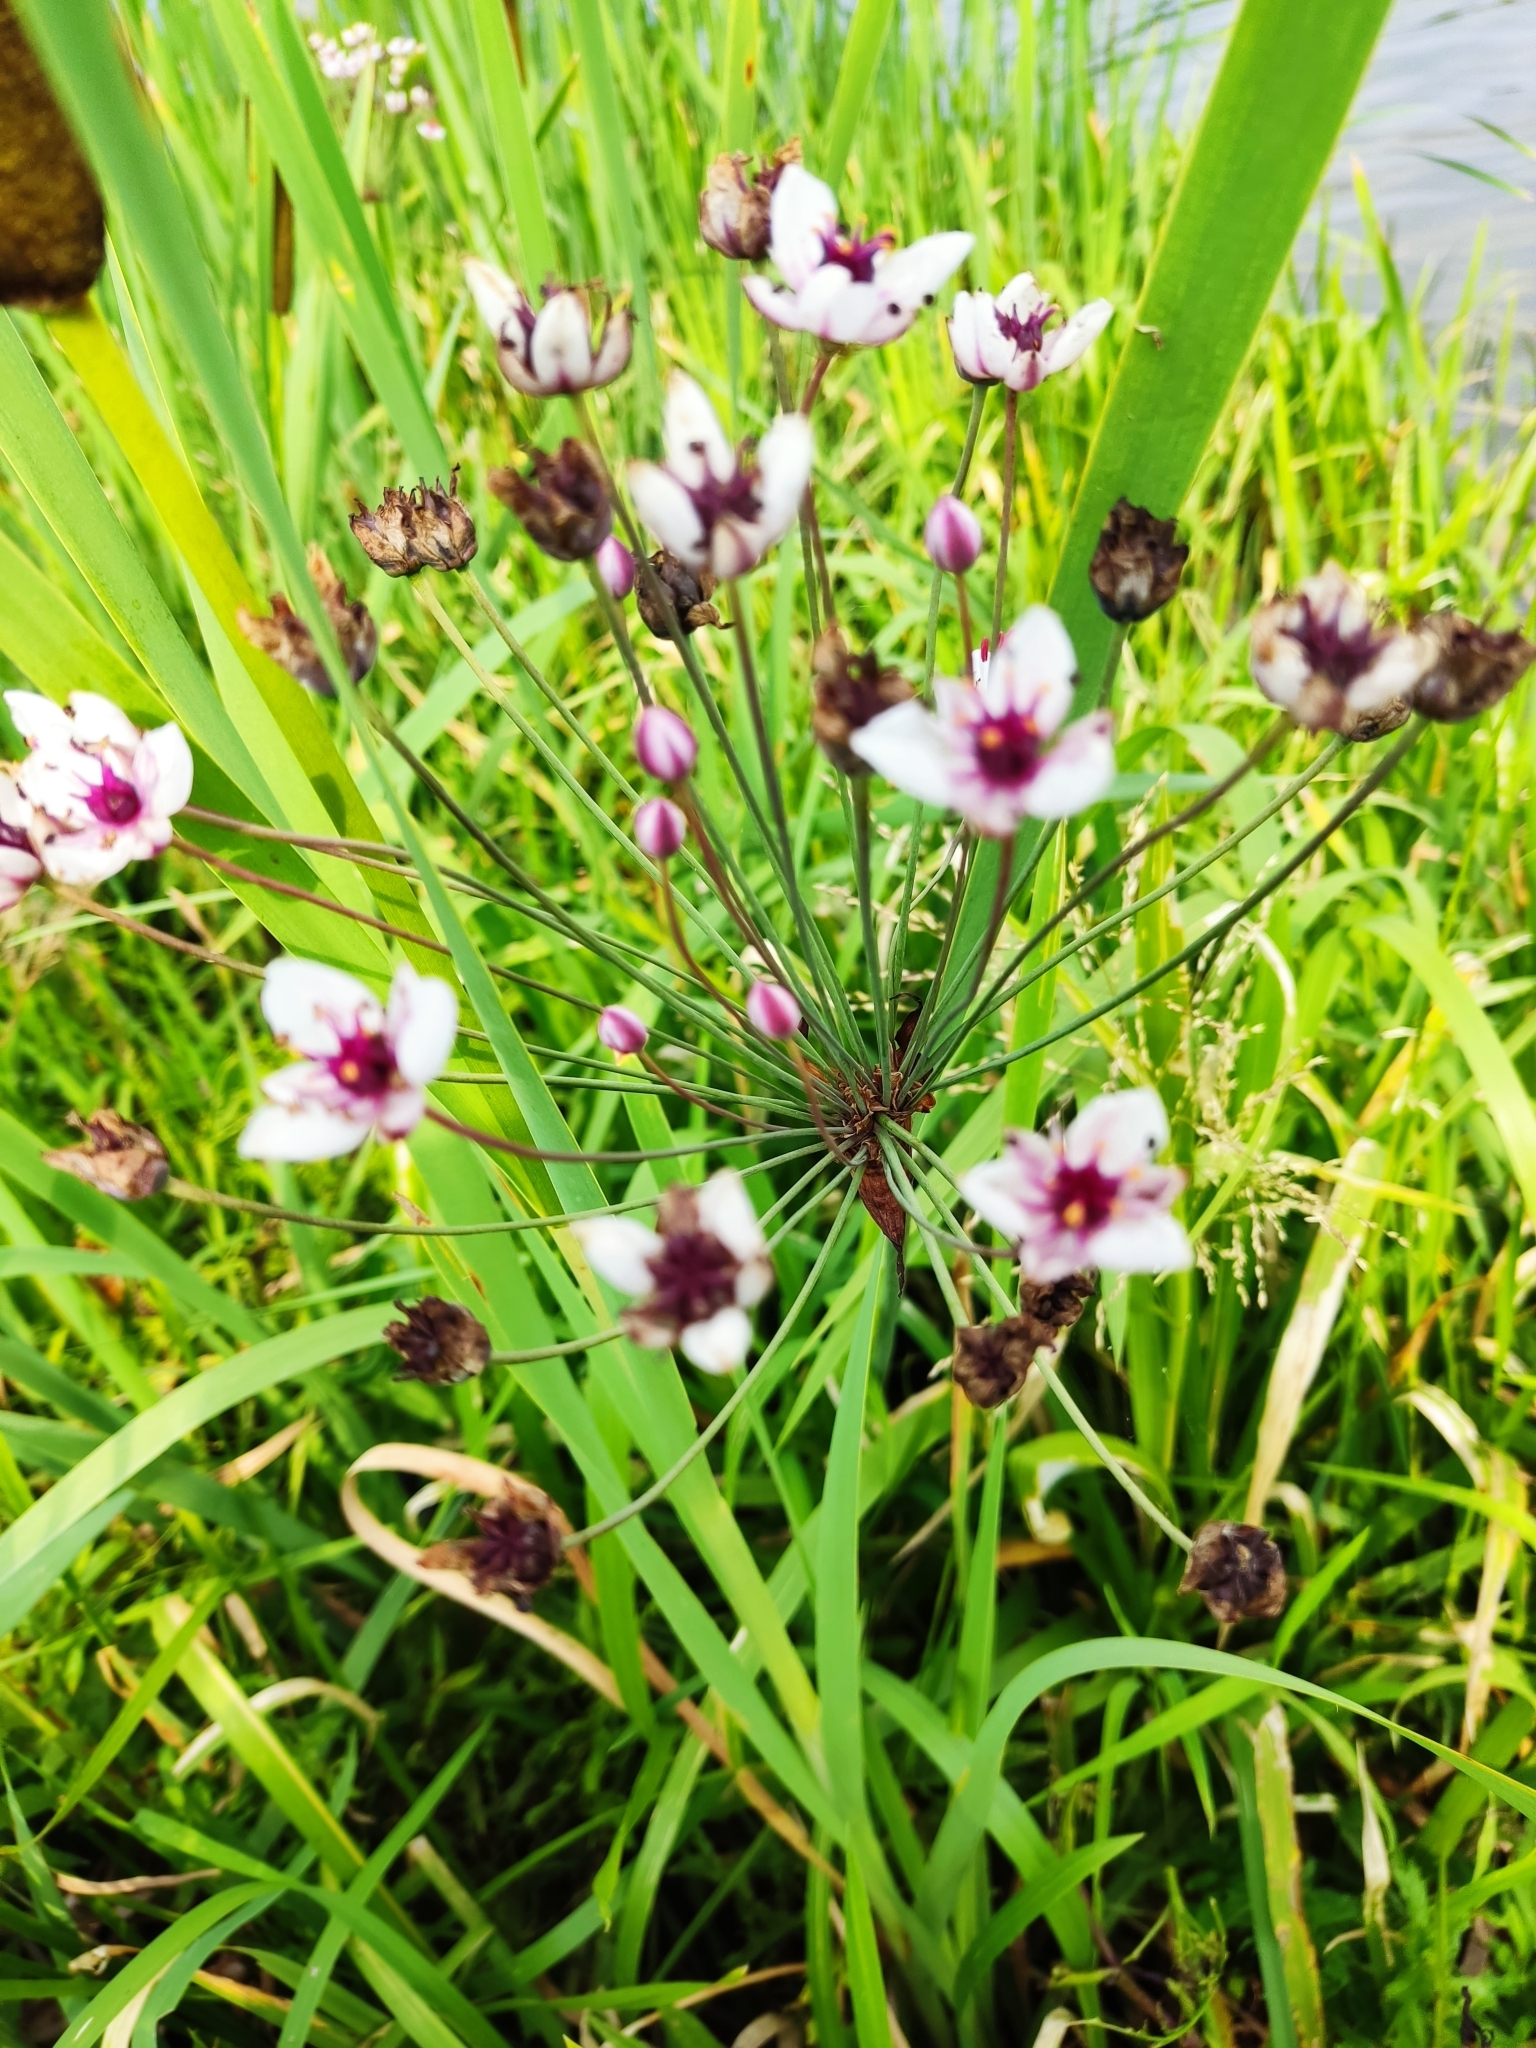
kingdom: Plantae
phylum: Tracheophyta
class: Liliopsida
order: Alismatales
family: Butomaceae
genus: Butomus
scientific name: Butomus umbellatus
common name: Flowering-rush
